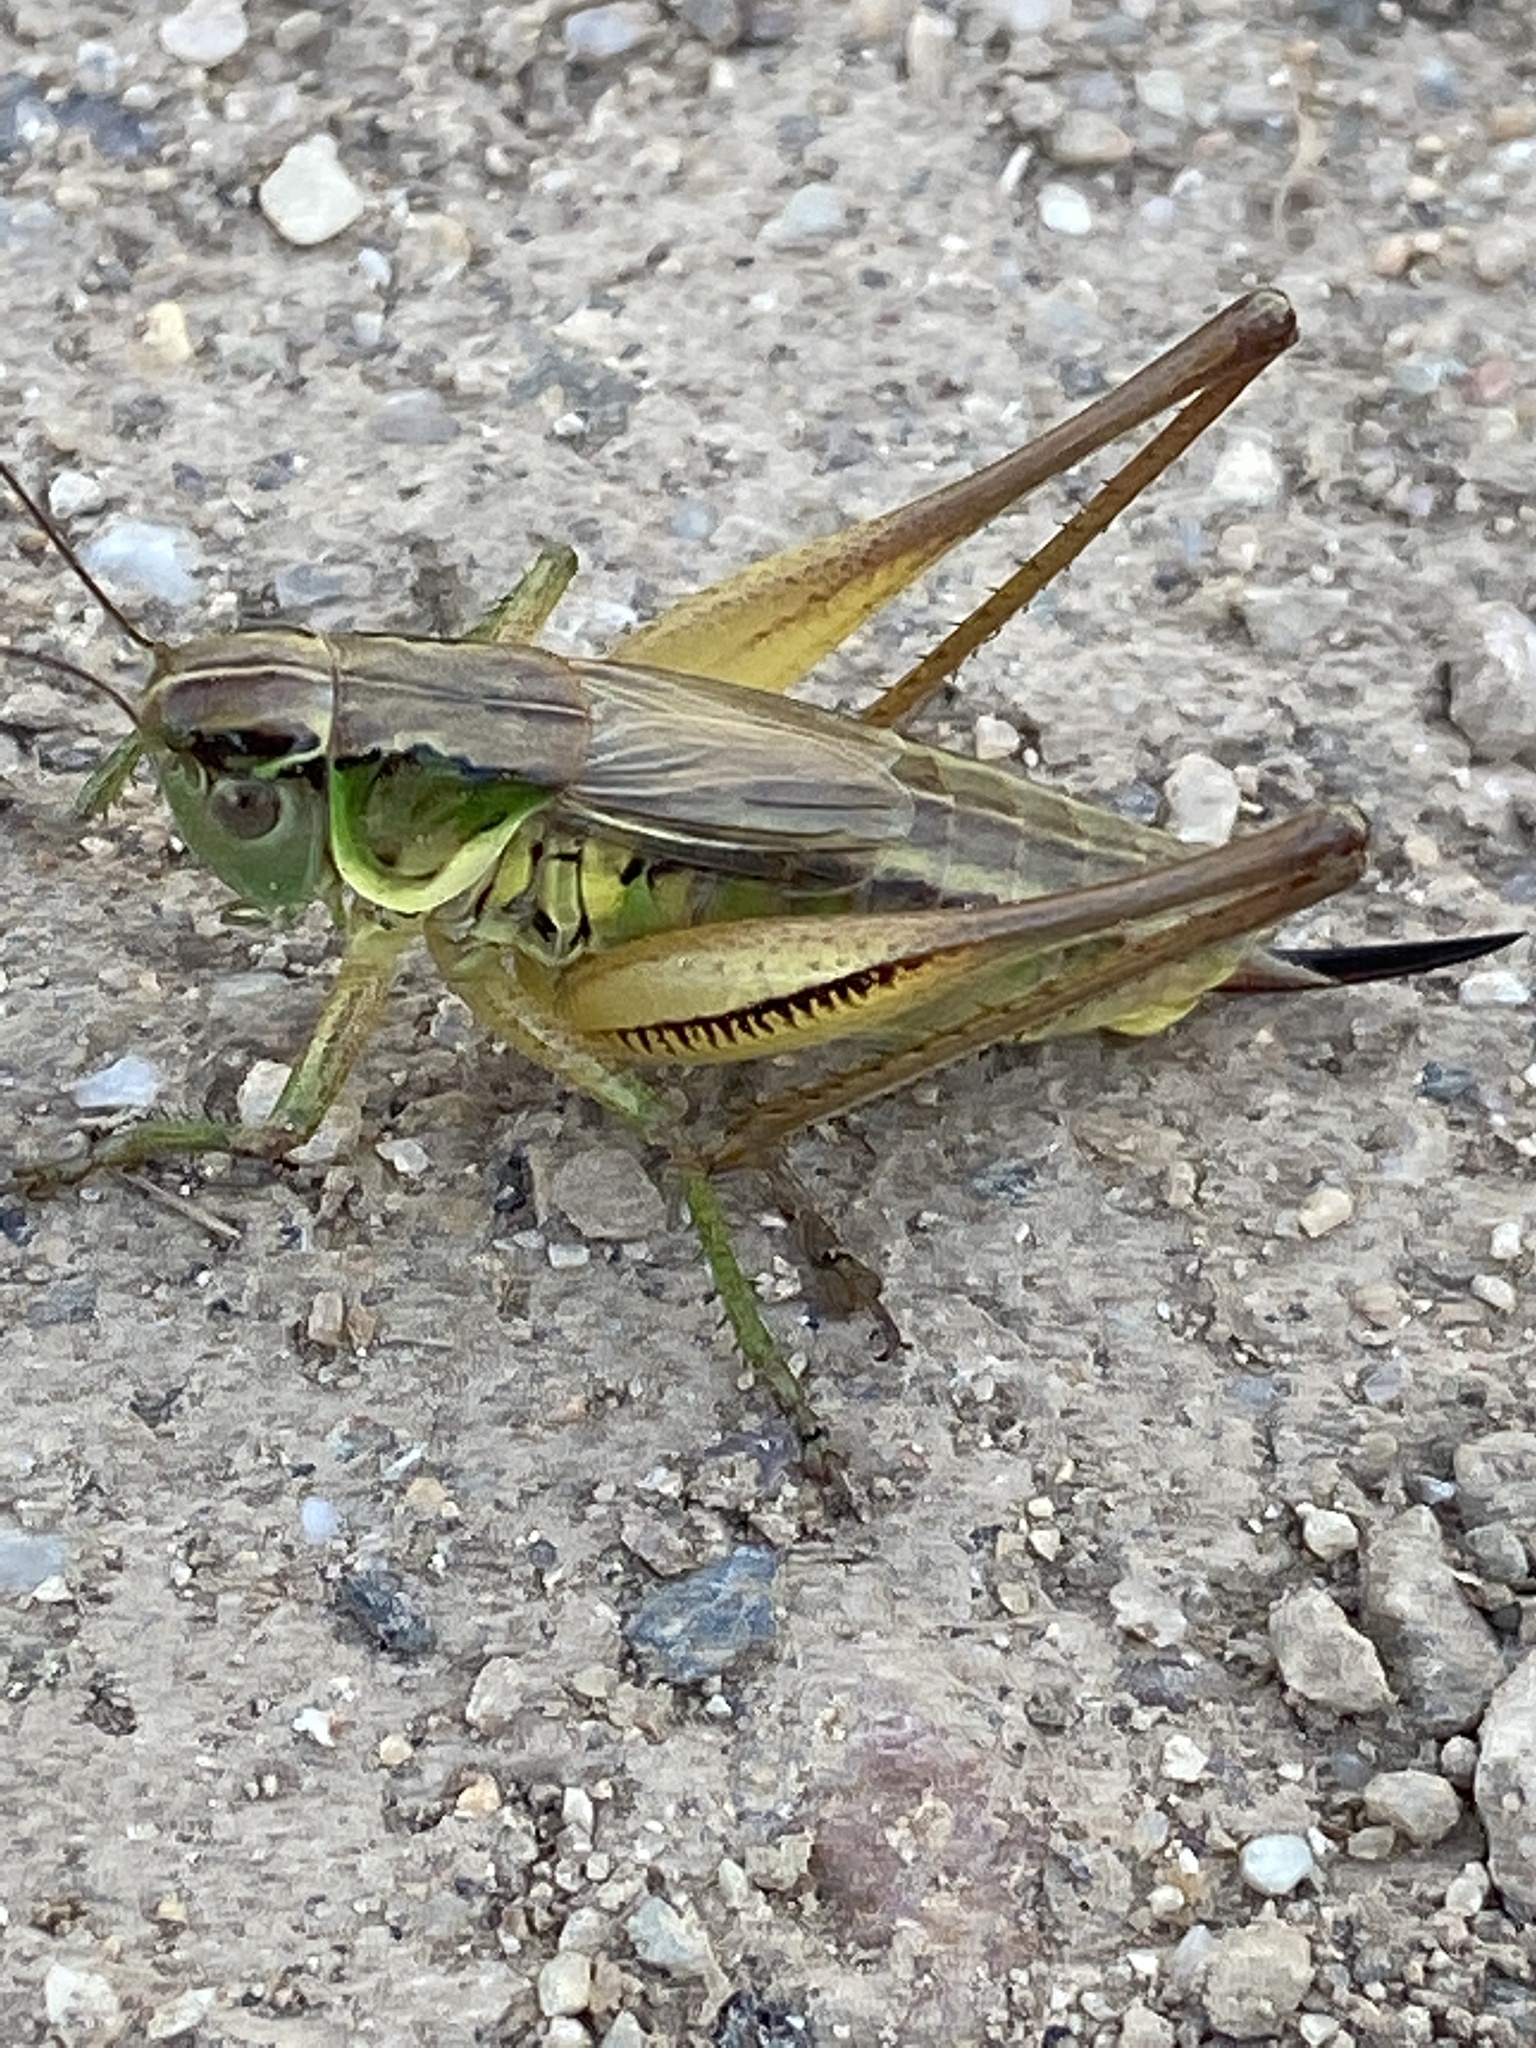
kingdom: Animalia
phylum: Arthropoda
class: Insecta
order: Orthoptera
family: Tettigoniidae
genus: Roeseliana
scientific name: Roeseliana roeselii
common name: Roesel's bush cricket
